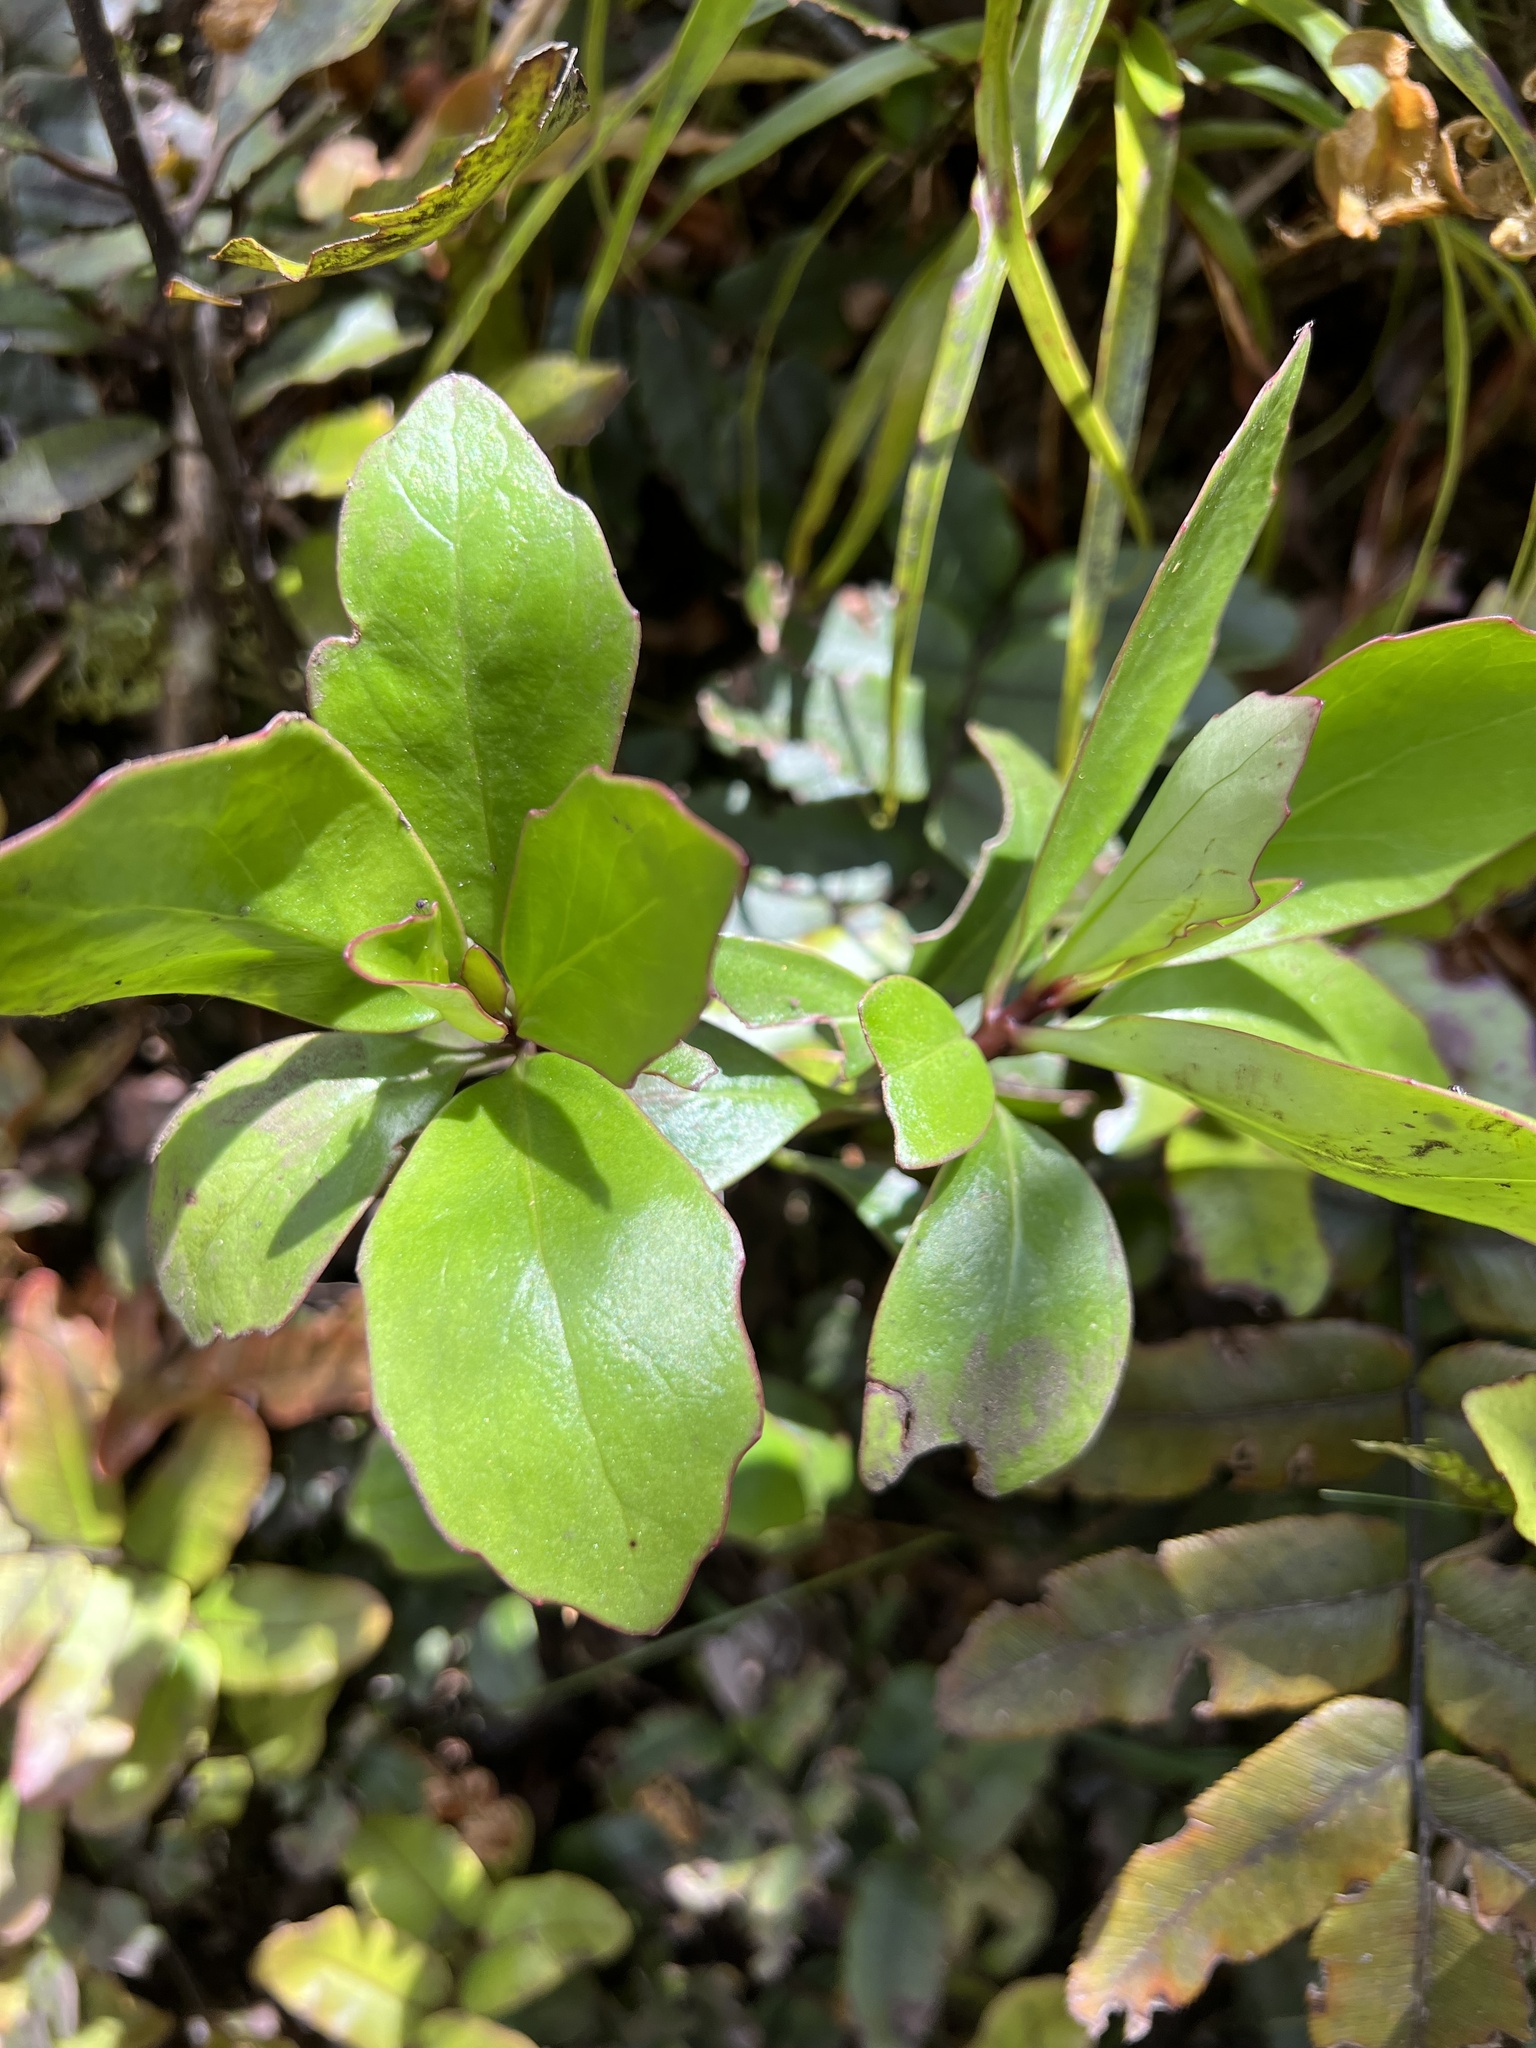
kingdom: Plantae
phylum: Tracheophyta
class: Magnoliopsida
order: Asterales
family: Asteraceae
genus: Brachyglottis
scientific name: Brachyglottis kirkii
